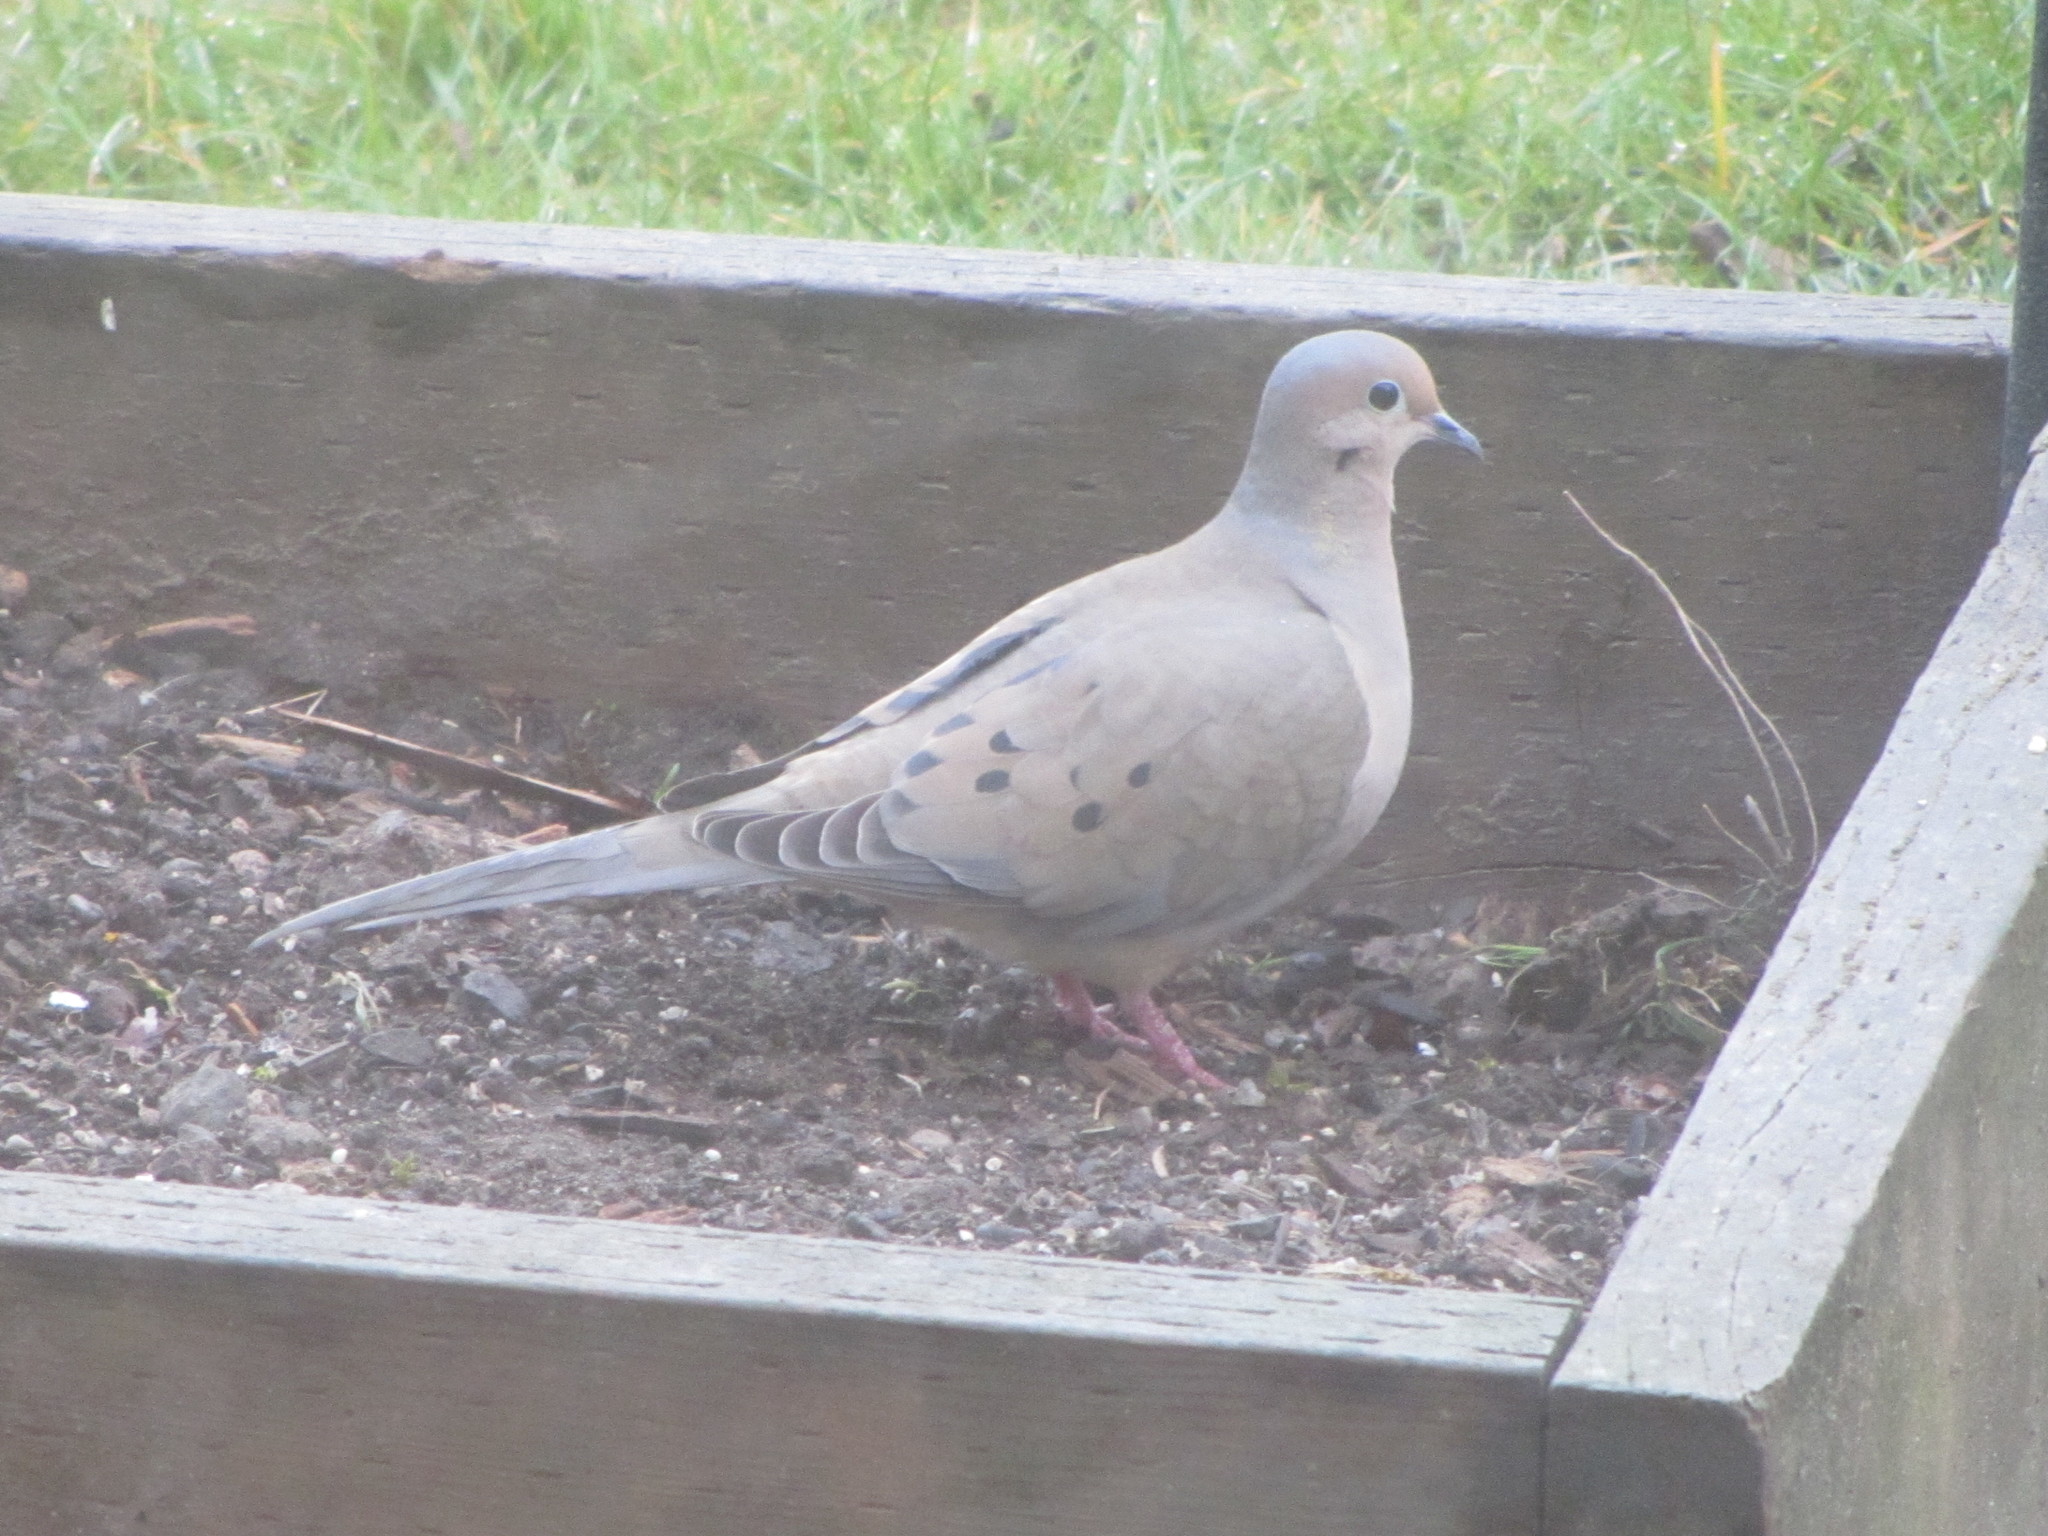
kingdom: Animalia
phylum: Chordata
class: Aves
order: Columbiformes
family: Columbidae
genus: Zenaida
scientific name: Zenaida macroura
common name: Mourning dove
